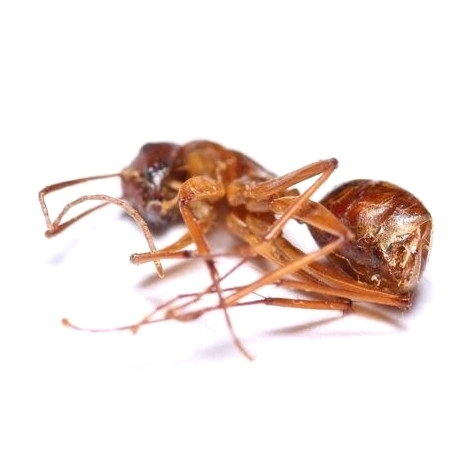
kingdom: Animalia
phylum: Arthropoda
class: Insecta
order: Hymenoptera
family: Formicidae
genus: Camponotus
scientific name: Camponotus castaneus
